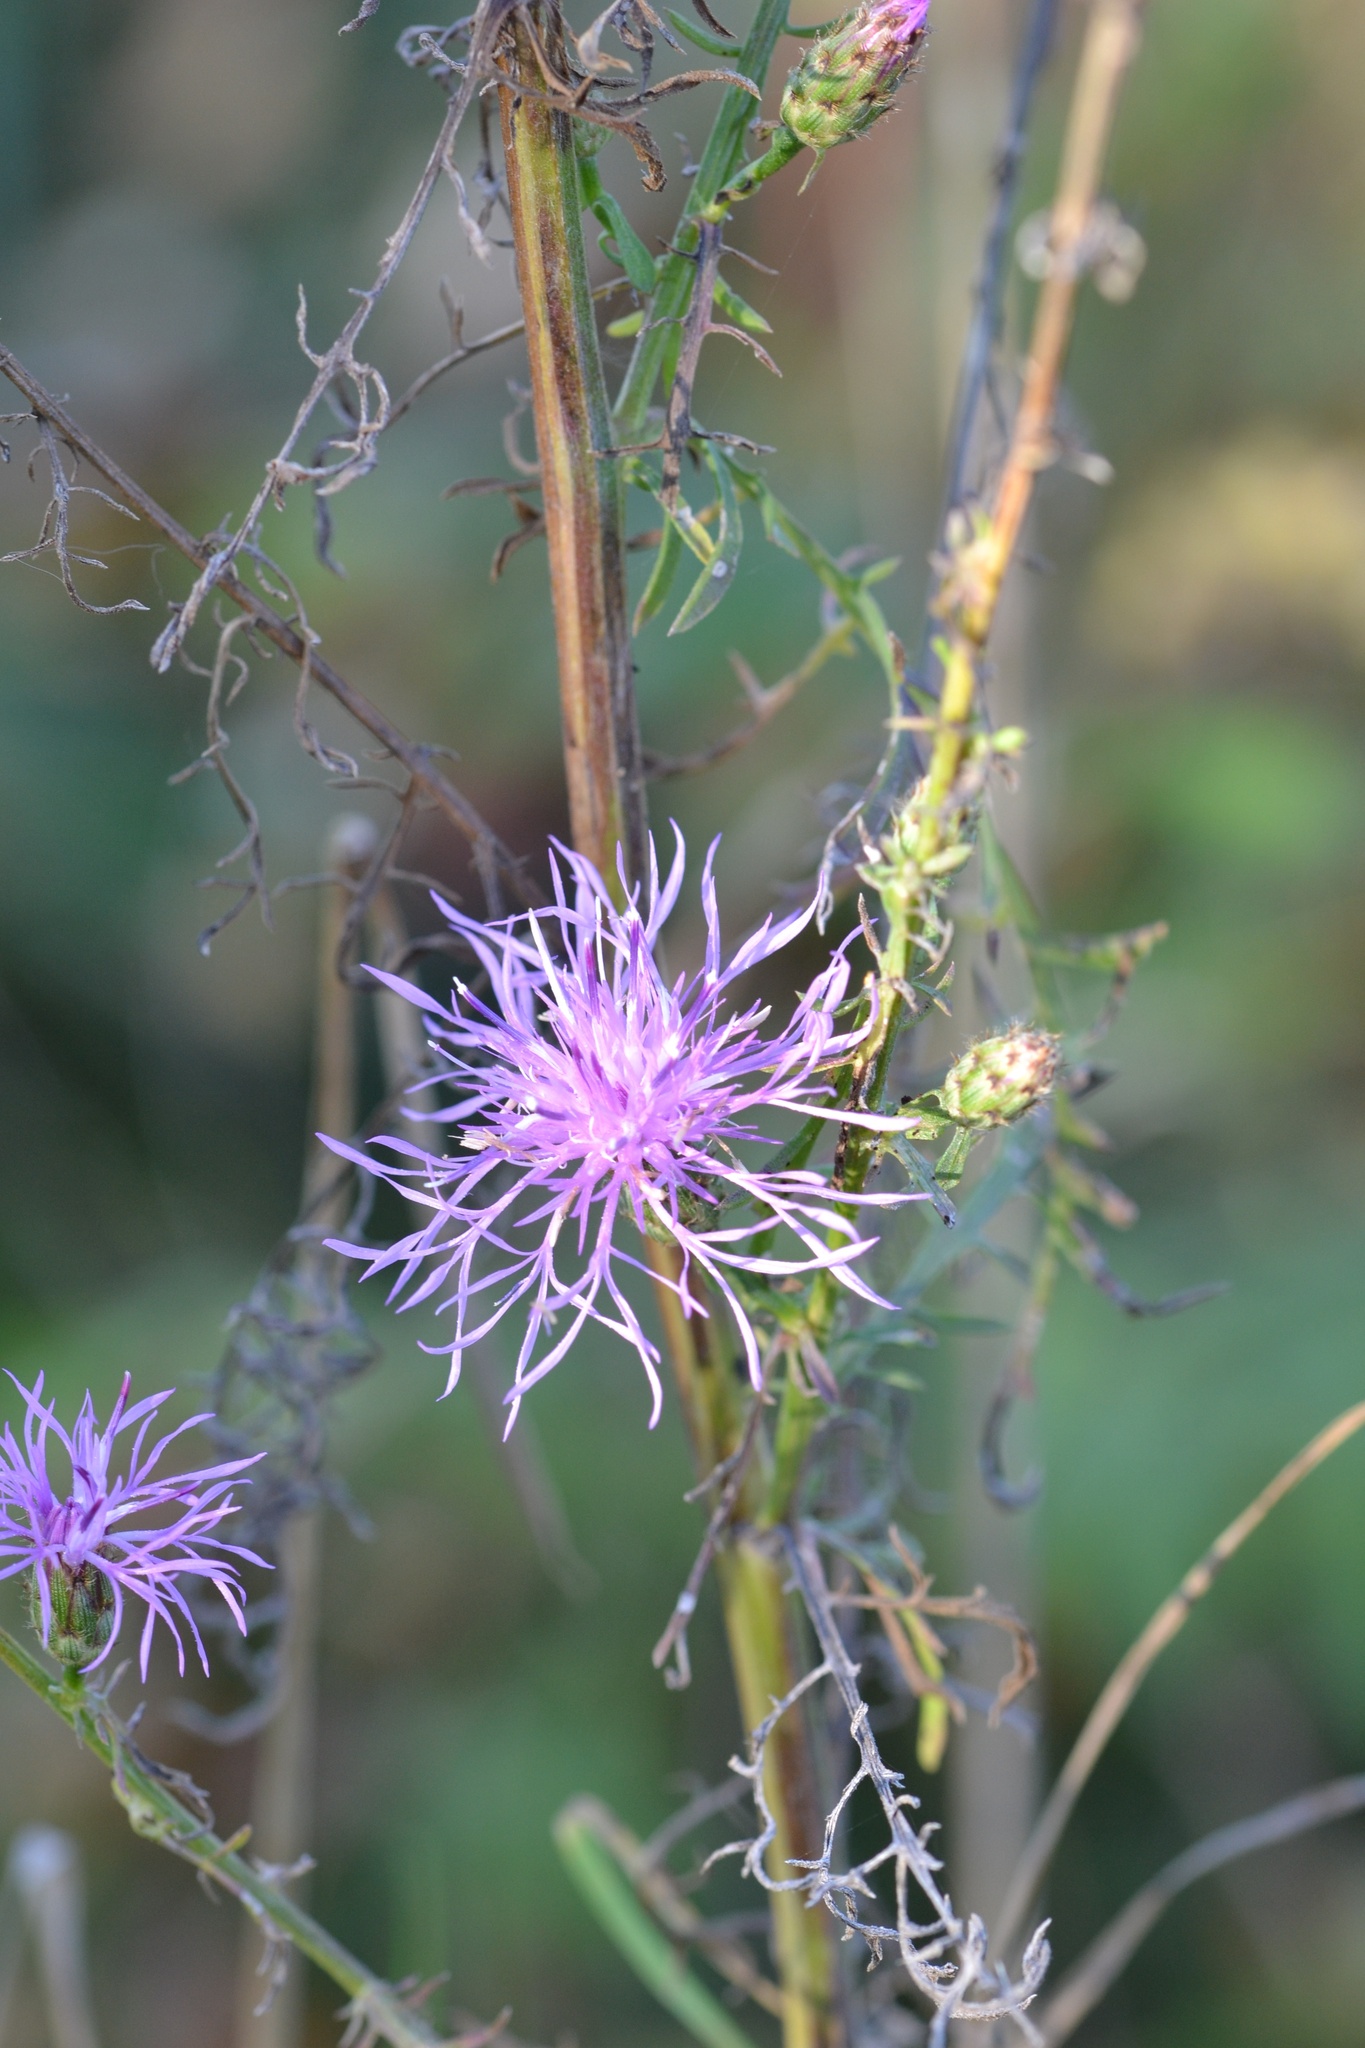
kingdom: Plantae
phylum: Tracheophyta
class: Magnoliopsida
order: Asterales
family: Asteraceae
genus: Centaurea
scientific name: Centaurea stoebe
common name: Spotted knapweed
